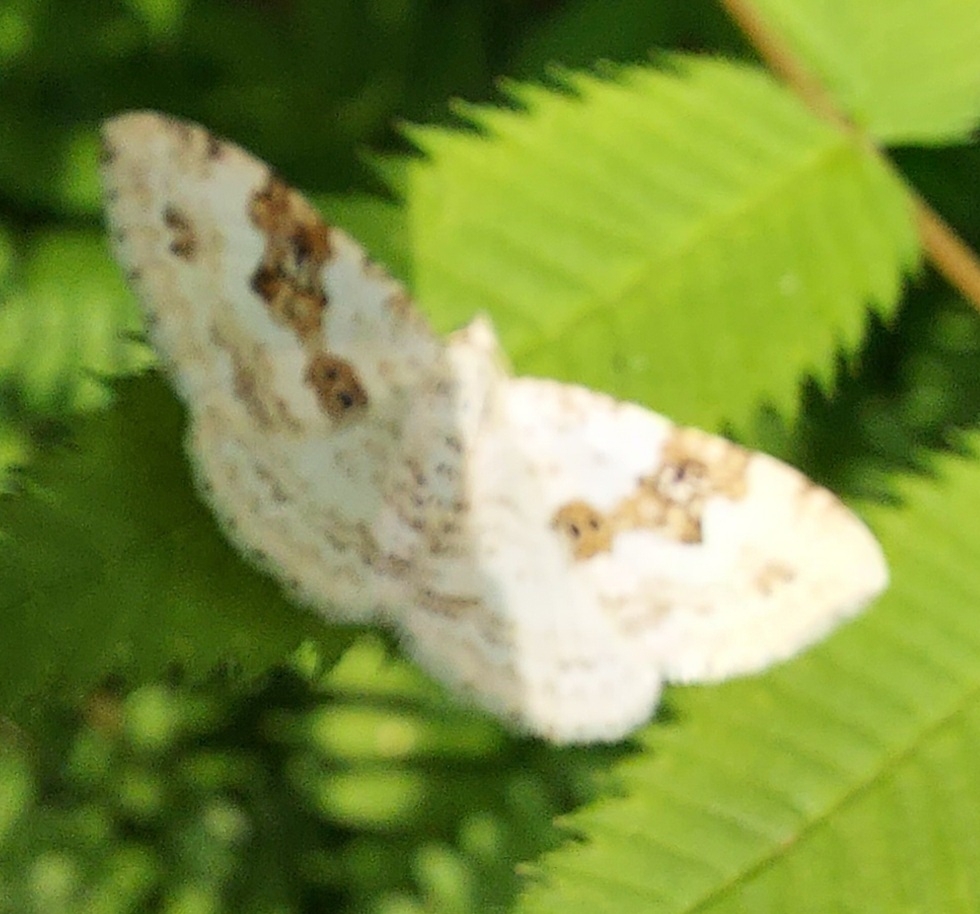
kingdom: Animalia
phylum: Arthropoda
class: Insecta
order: Lepidoptera
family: Geometridae
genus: Xanthorhoe
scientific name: Xanthorhoe montanata
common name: Silver-ground carpet
